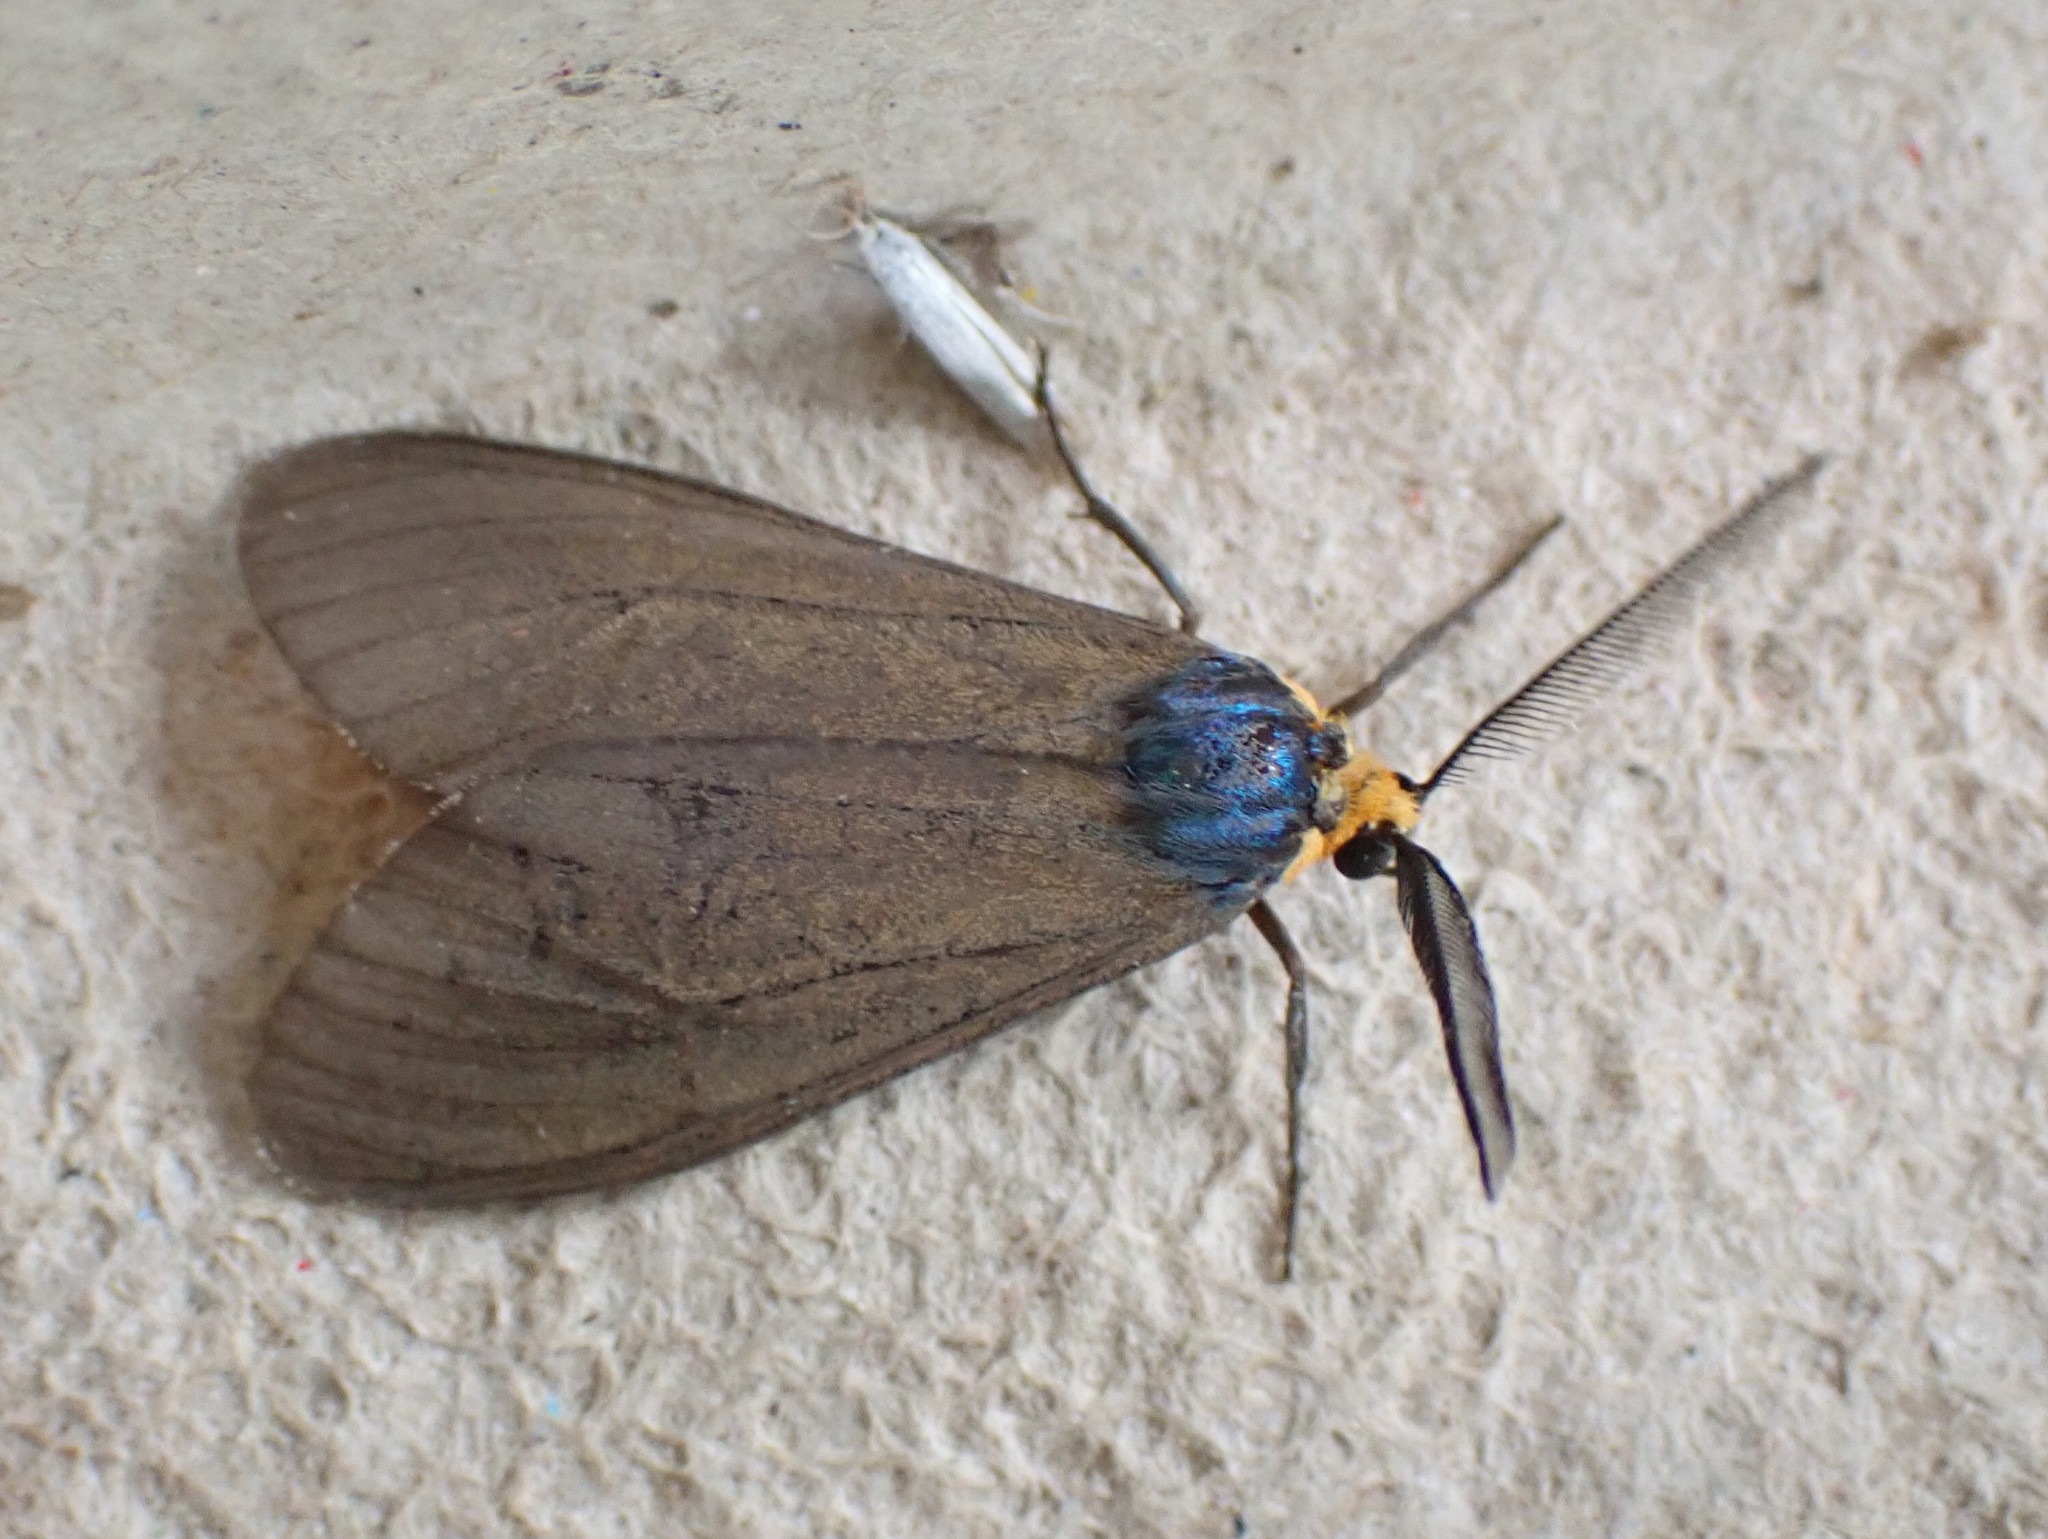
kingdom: Animalia
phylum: Arthropoda
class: Insecta
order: Lepidoptera
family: Erebidae
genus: Ctenucha
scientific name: Ctenucha virginica
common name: Virginia ctenucha moth
